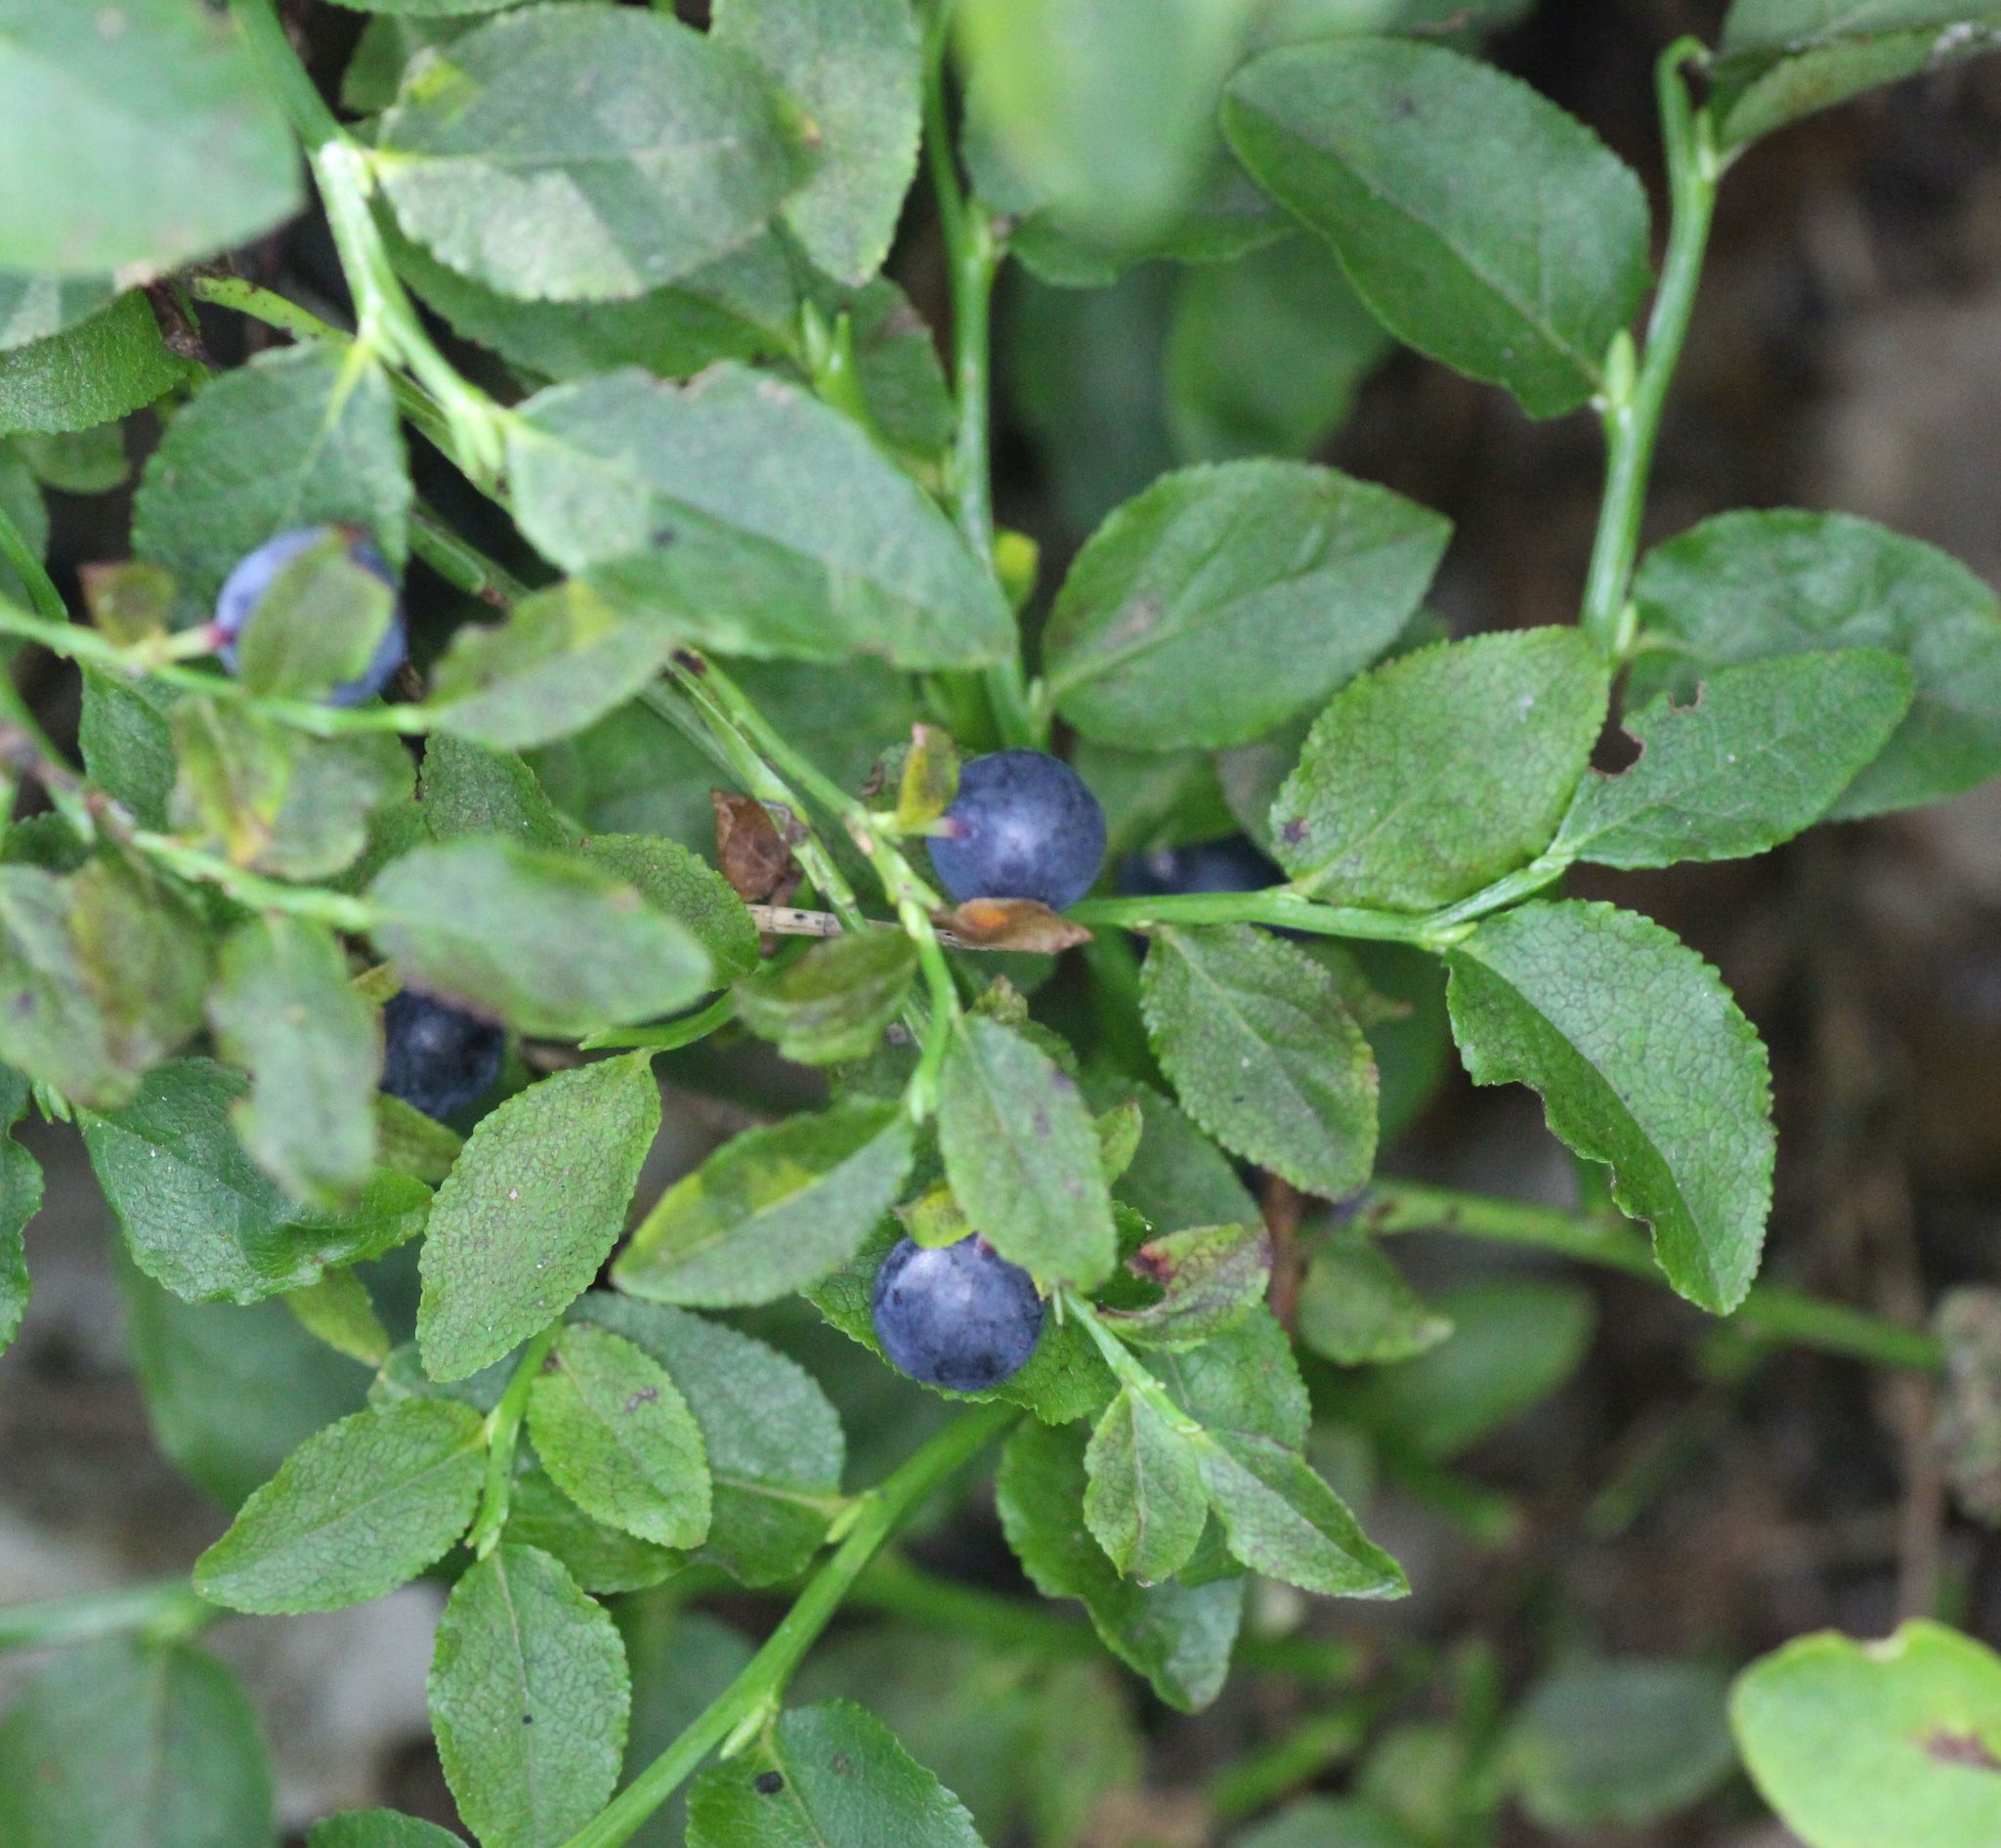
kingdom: Plantae
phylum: Tracheophyta
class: Magnoliopsida
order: Ericales
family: Ericaceae
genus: Vaccinium
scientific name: Vaccinium myrtillus
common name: Bilberry
